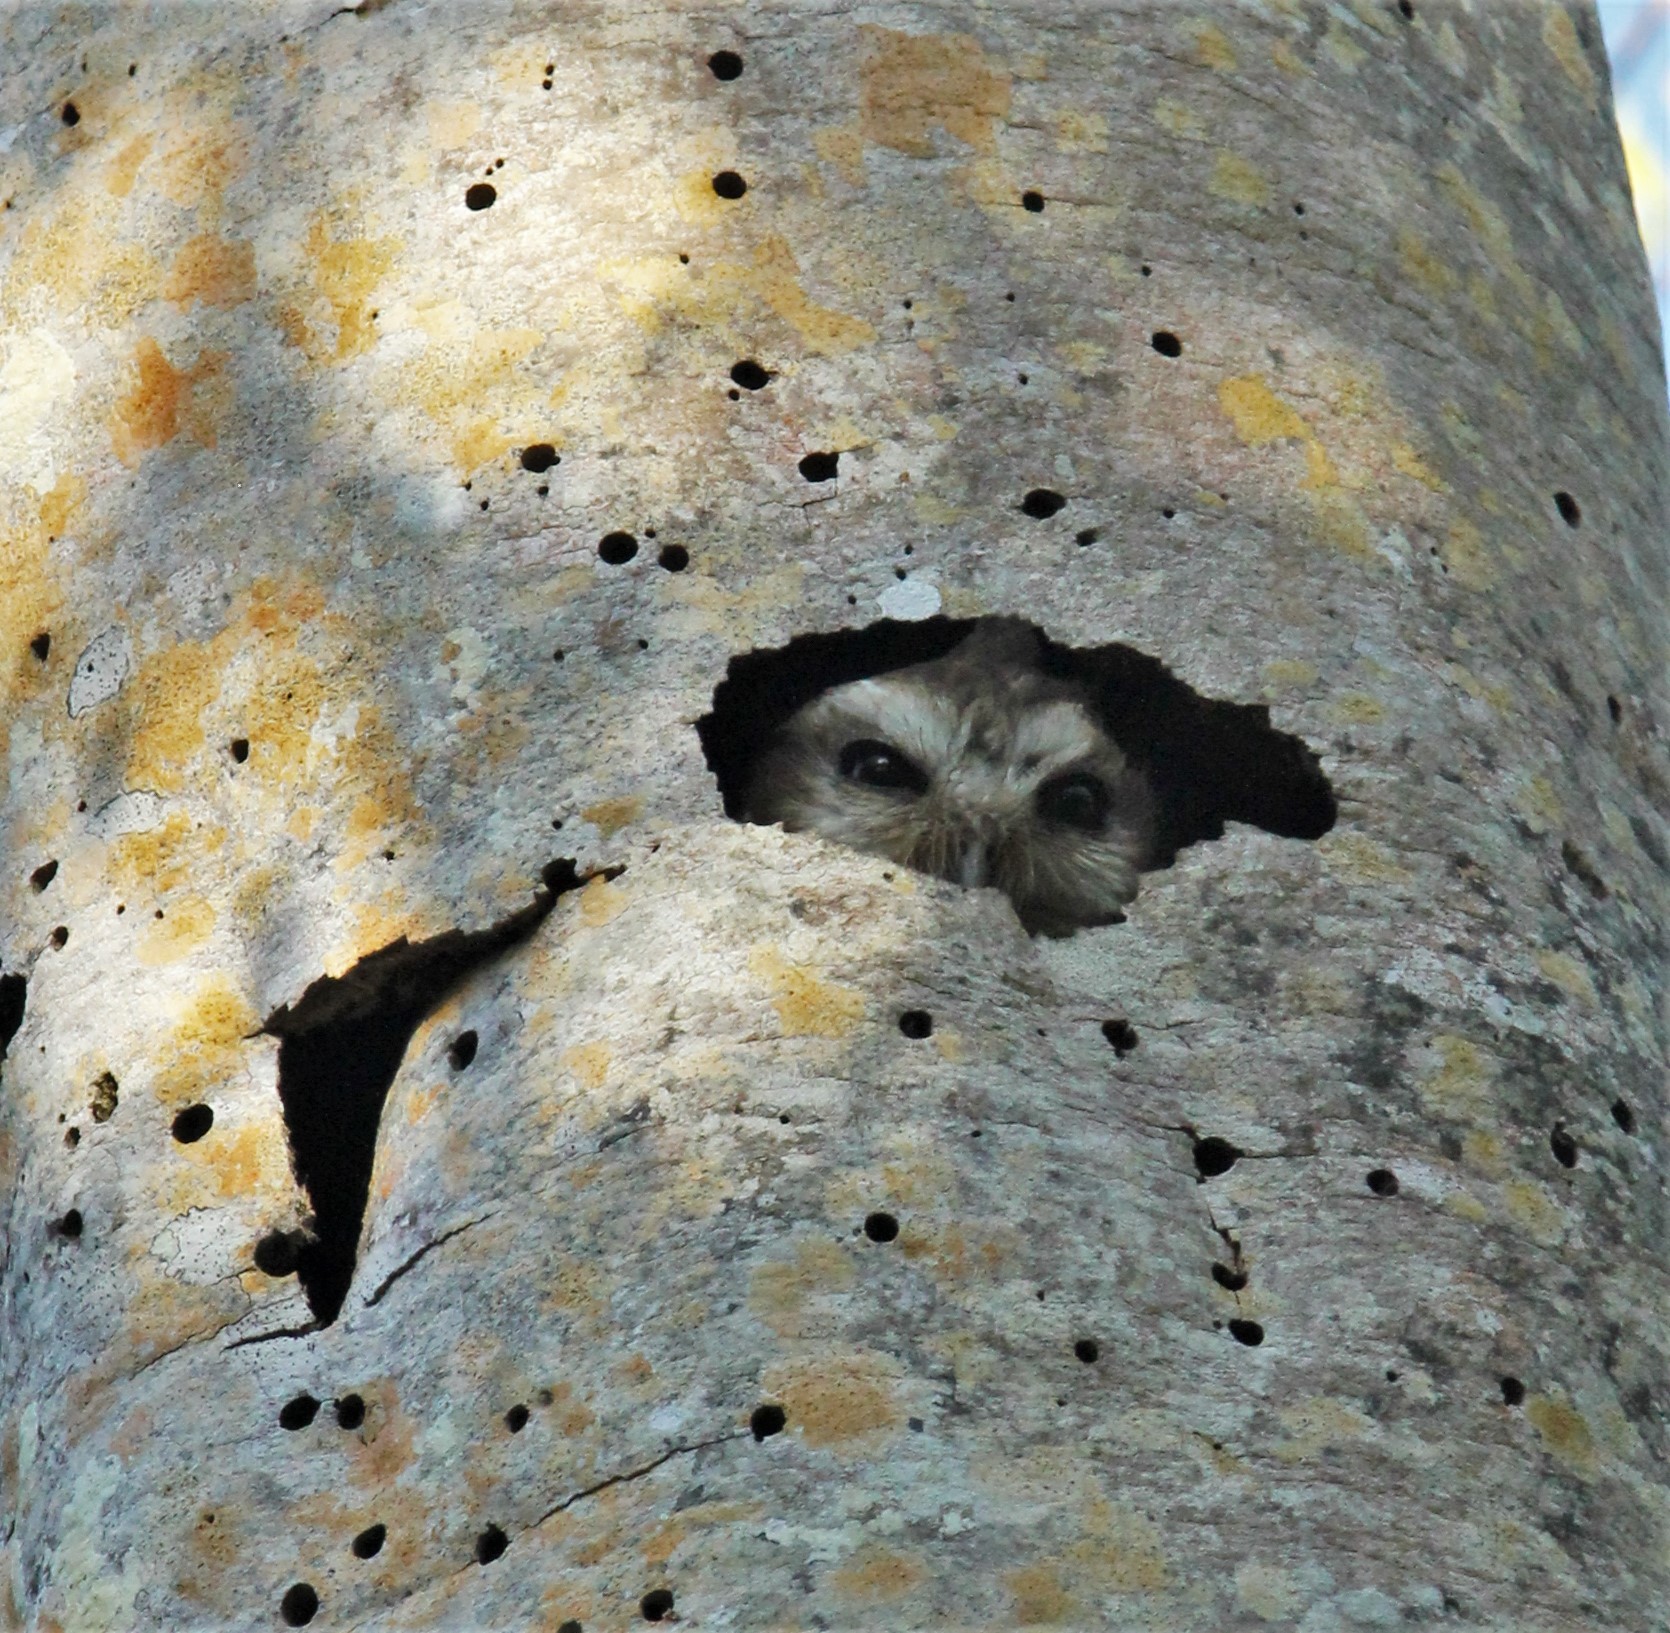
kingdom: Animalia
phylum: Chordata
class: Aves
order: Strigiformes
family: Strigidae
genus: Margarobyas
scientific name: Margarobyas lawrencii
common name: Bare-legged owl
